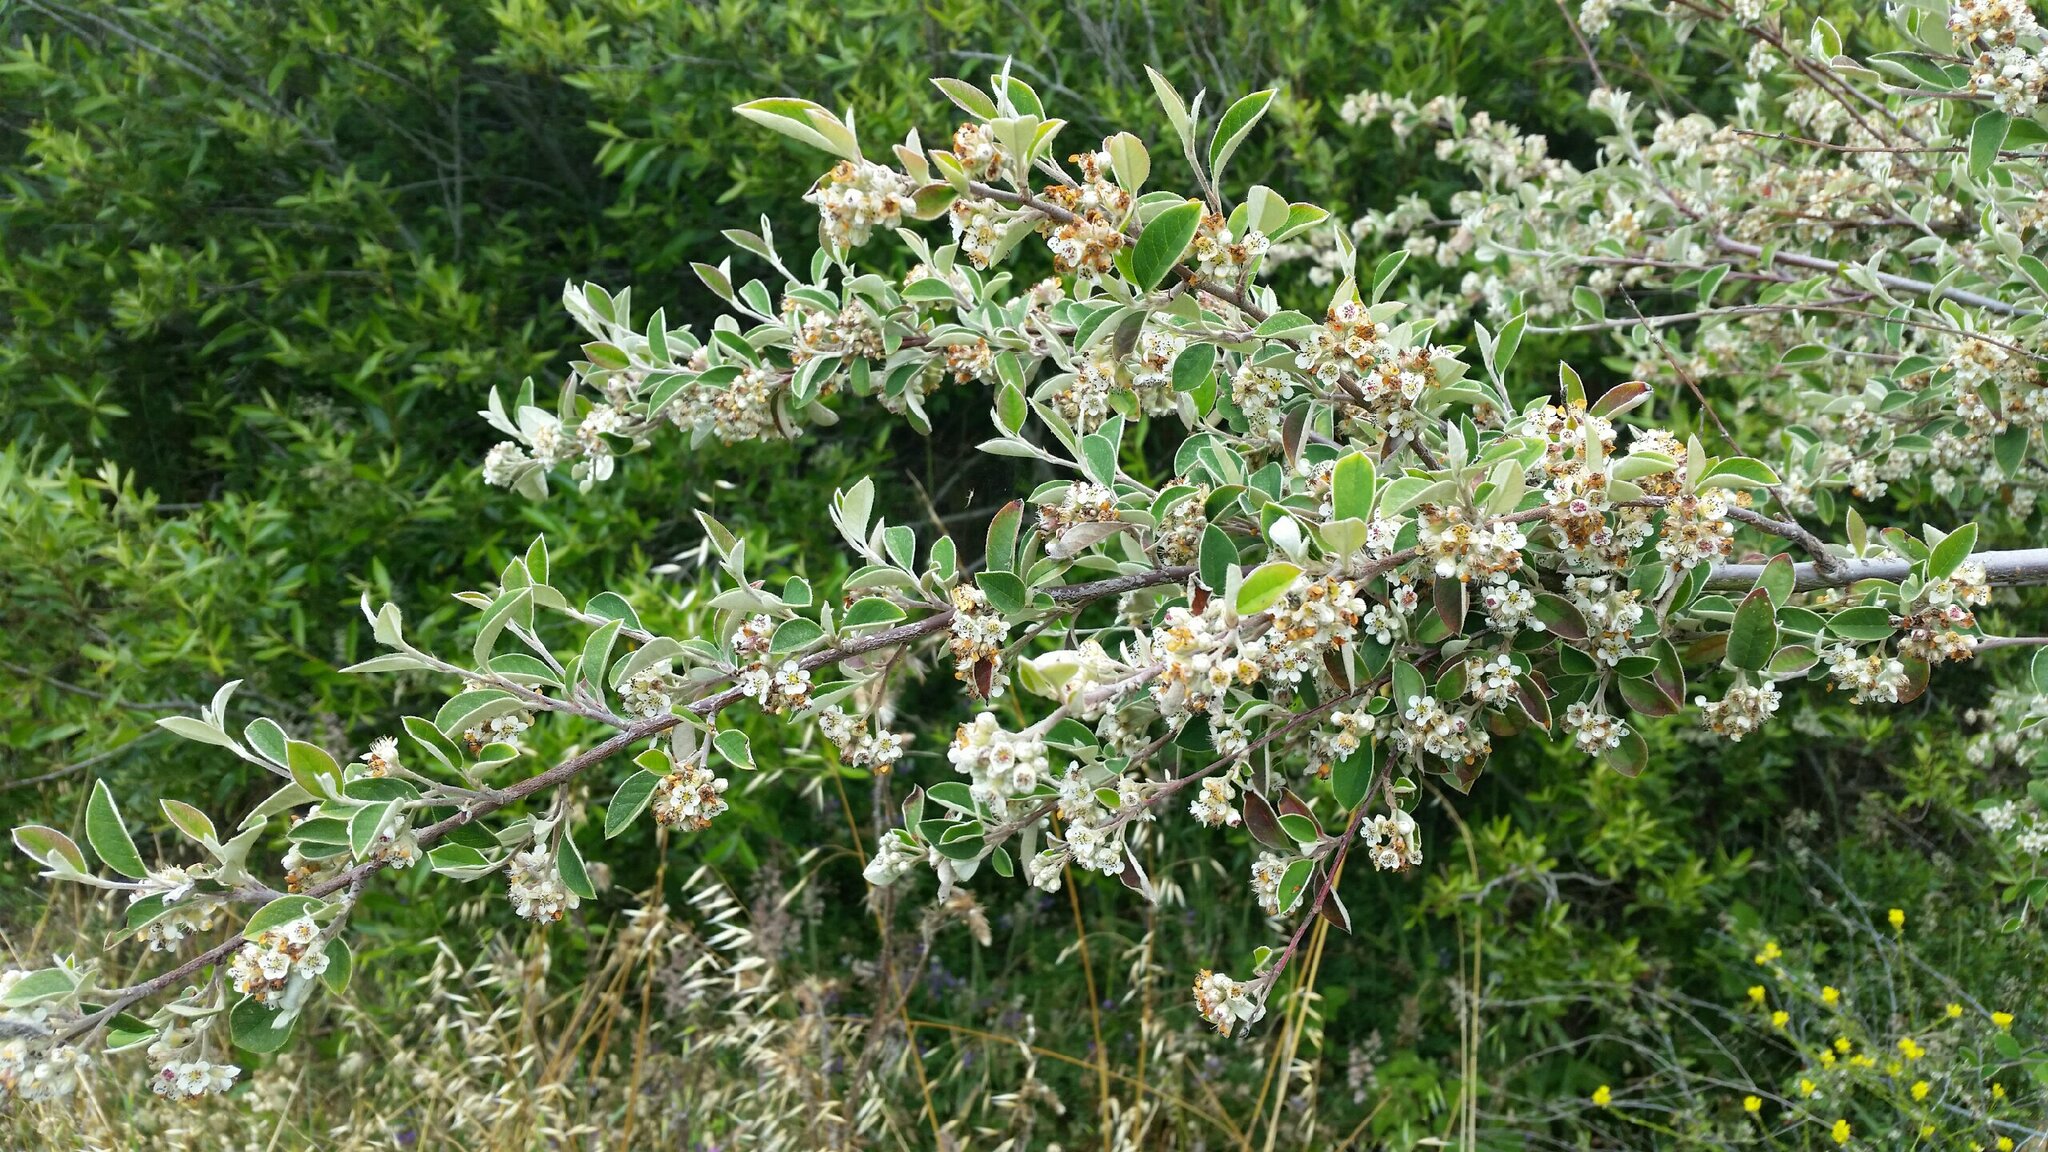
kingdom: Plantae
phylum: Tracheophyta
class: Magnoliopsida
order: Rosales
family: Rosaceae
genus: Cotoneaster
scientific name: Cotoneaster pannosus
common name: Silverleaf cotoneaster
